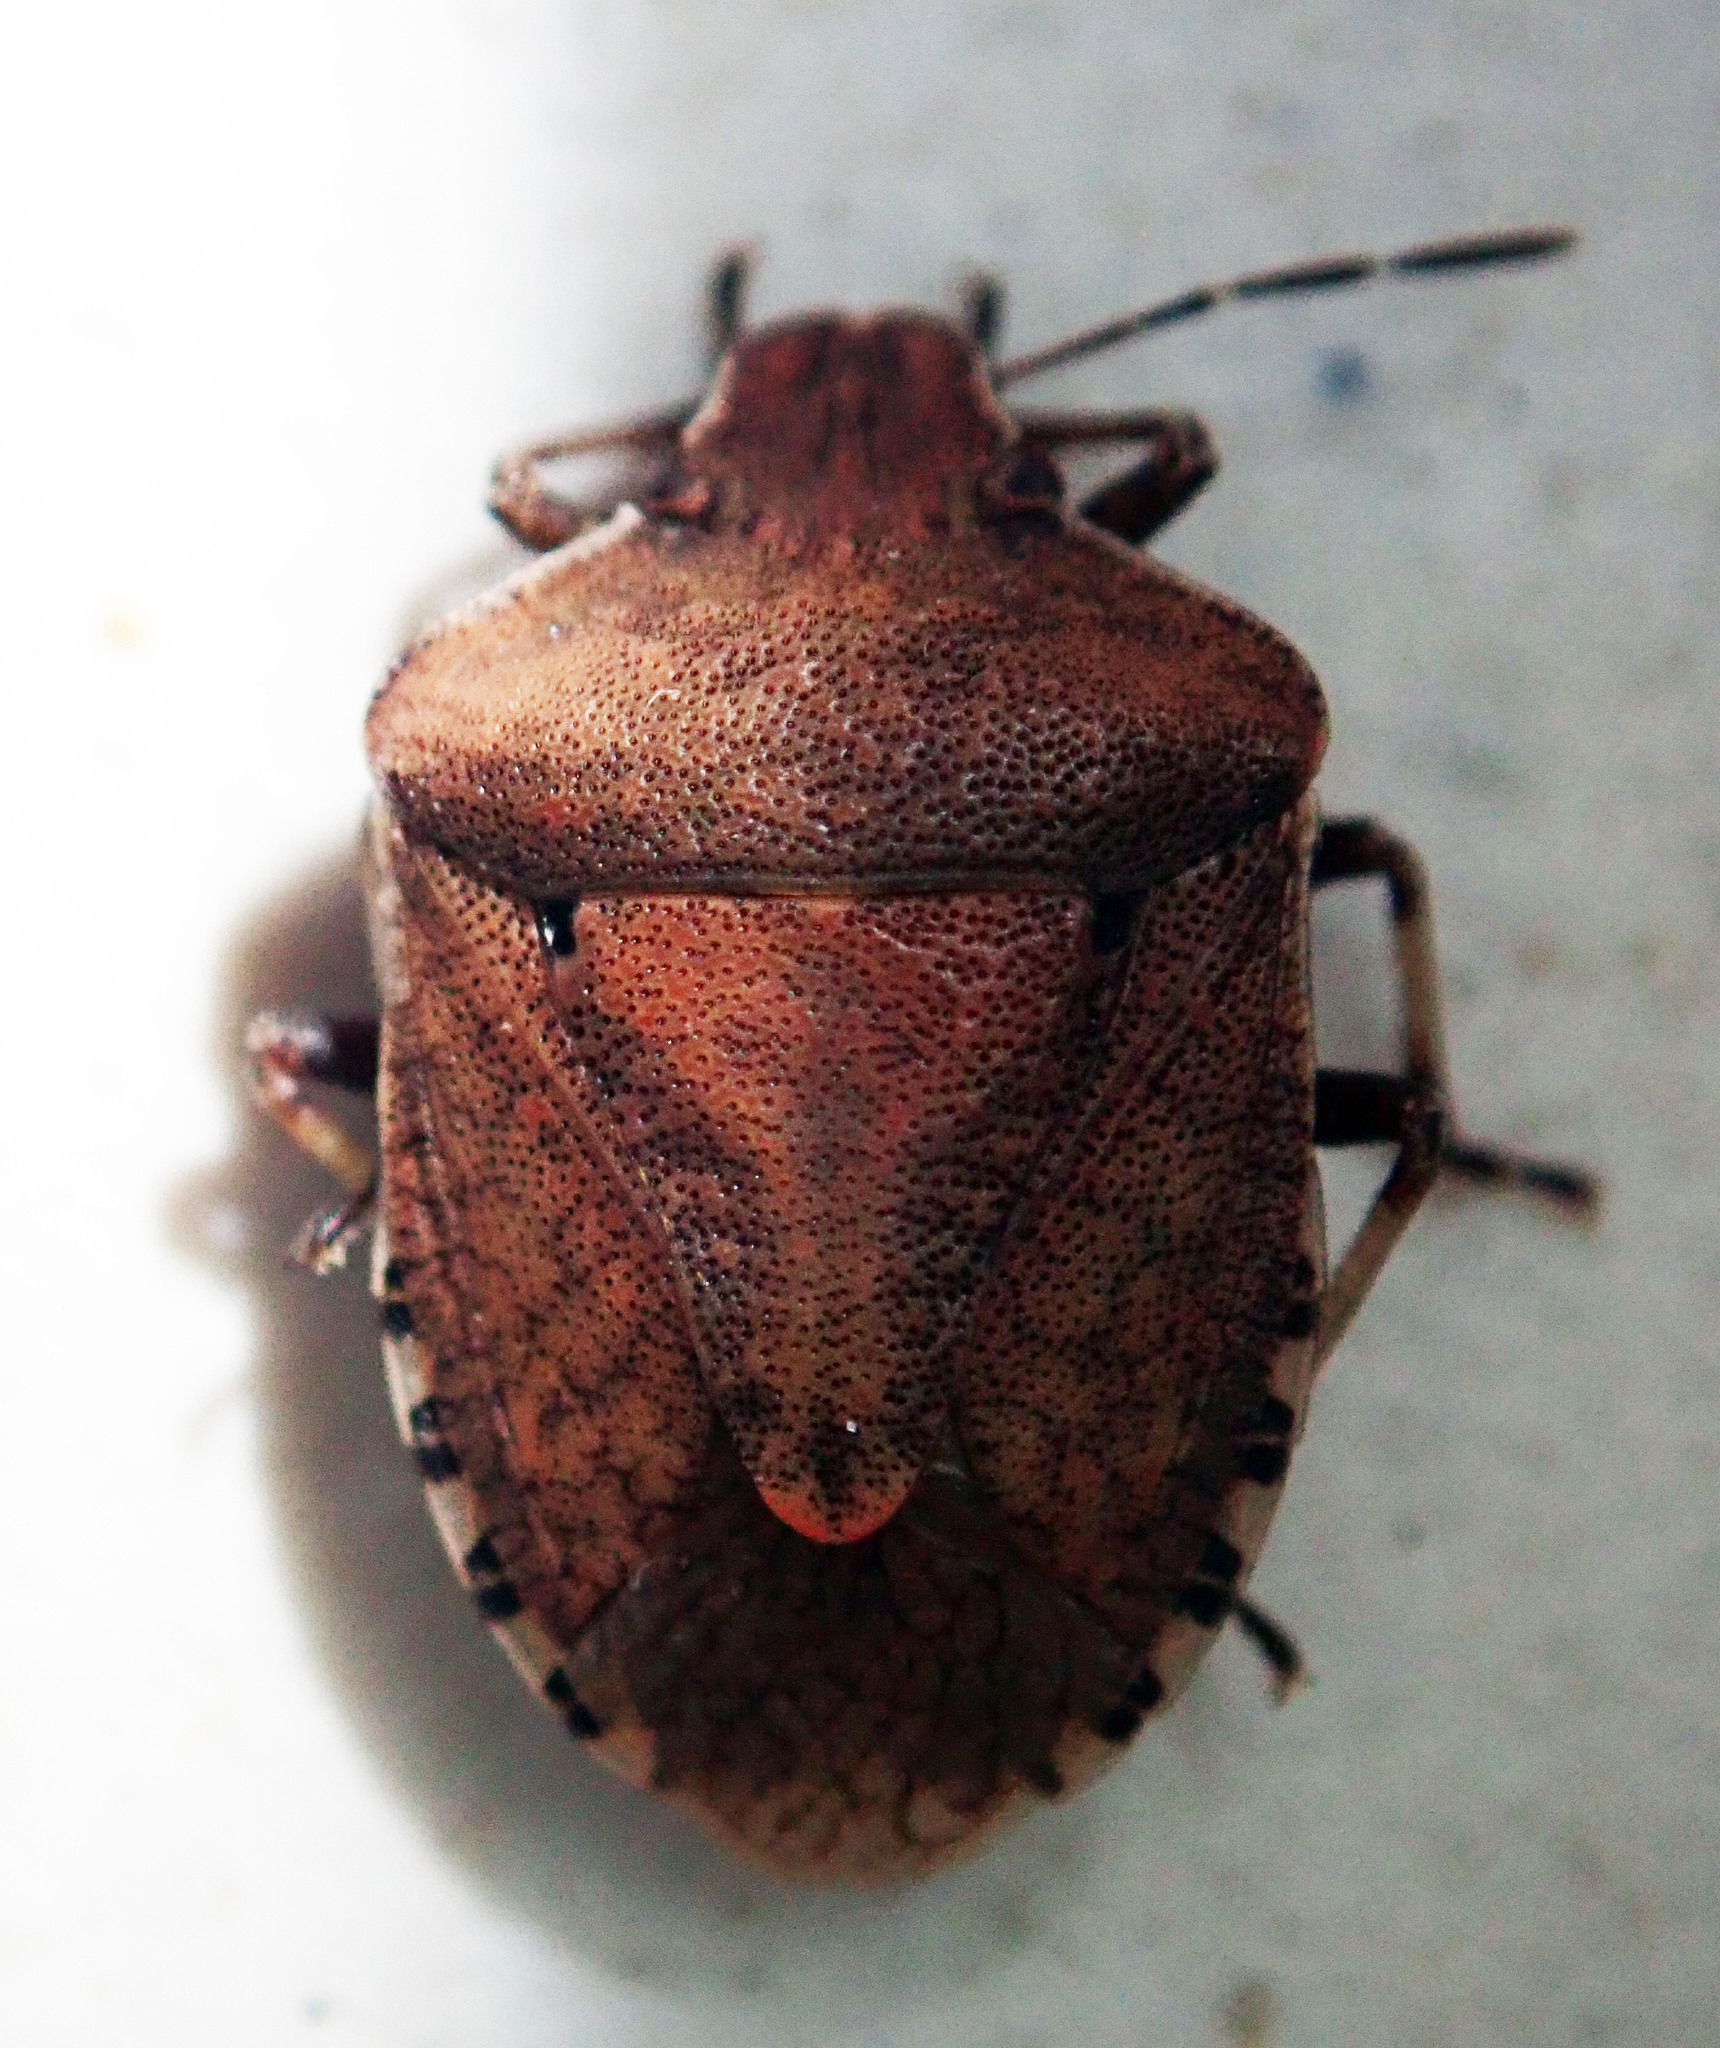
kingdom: Animalia
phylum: Arthropoda
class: Insecta
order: Hemiptera
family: Pentatomidae
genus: Dictyotus
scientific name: Dictyotus caenosus
